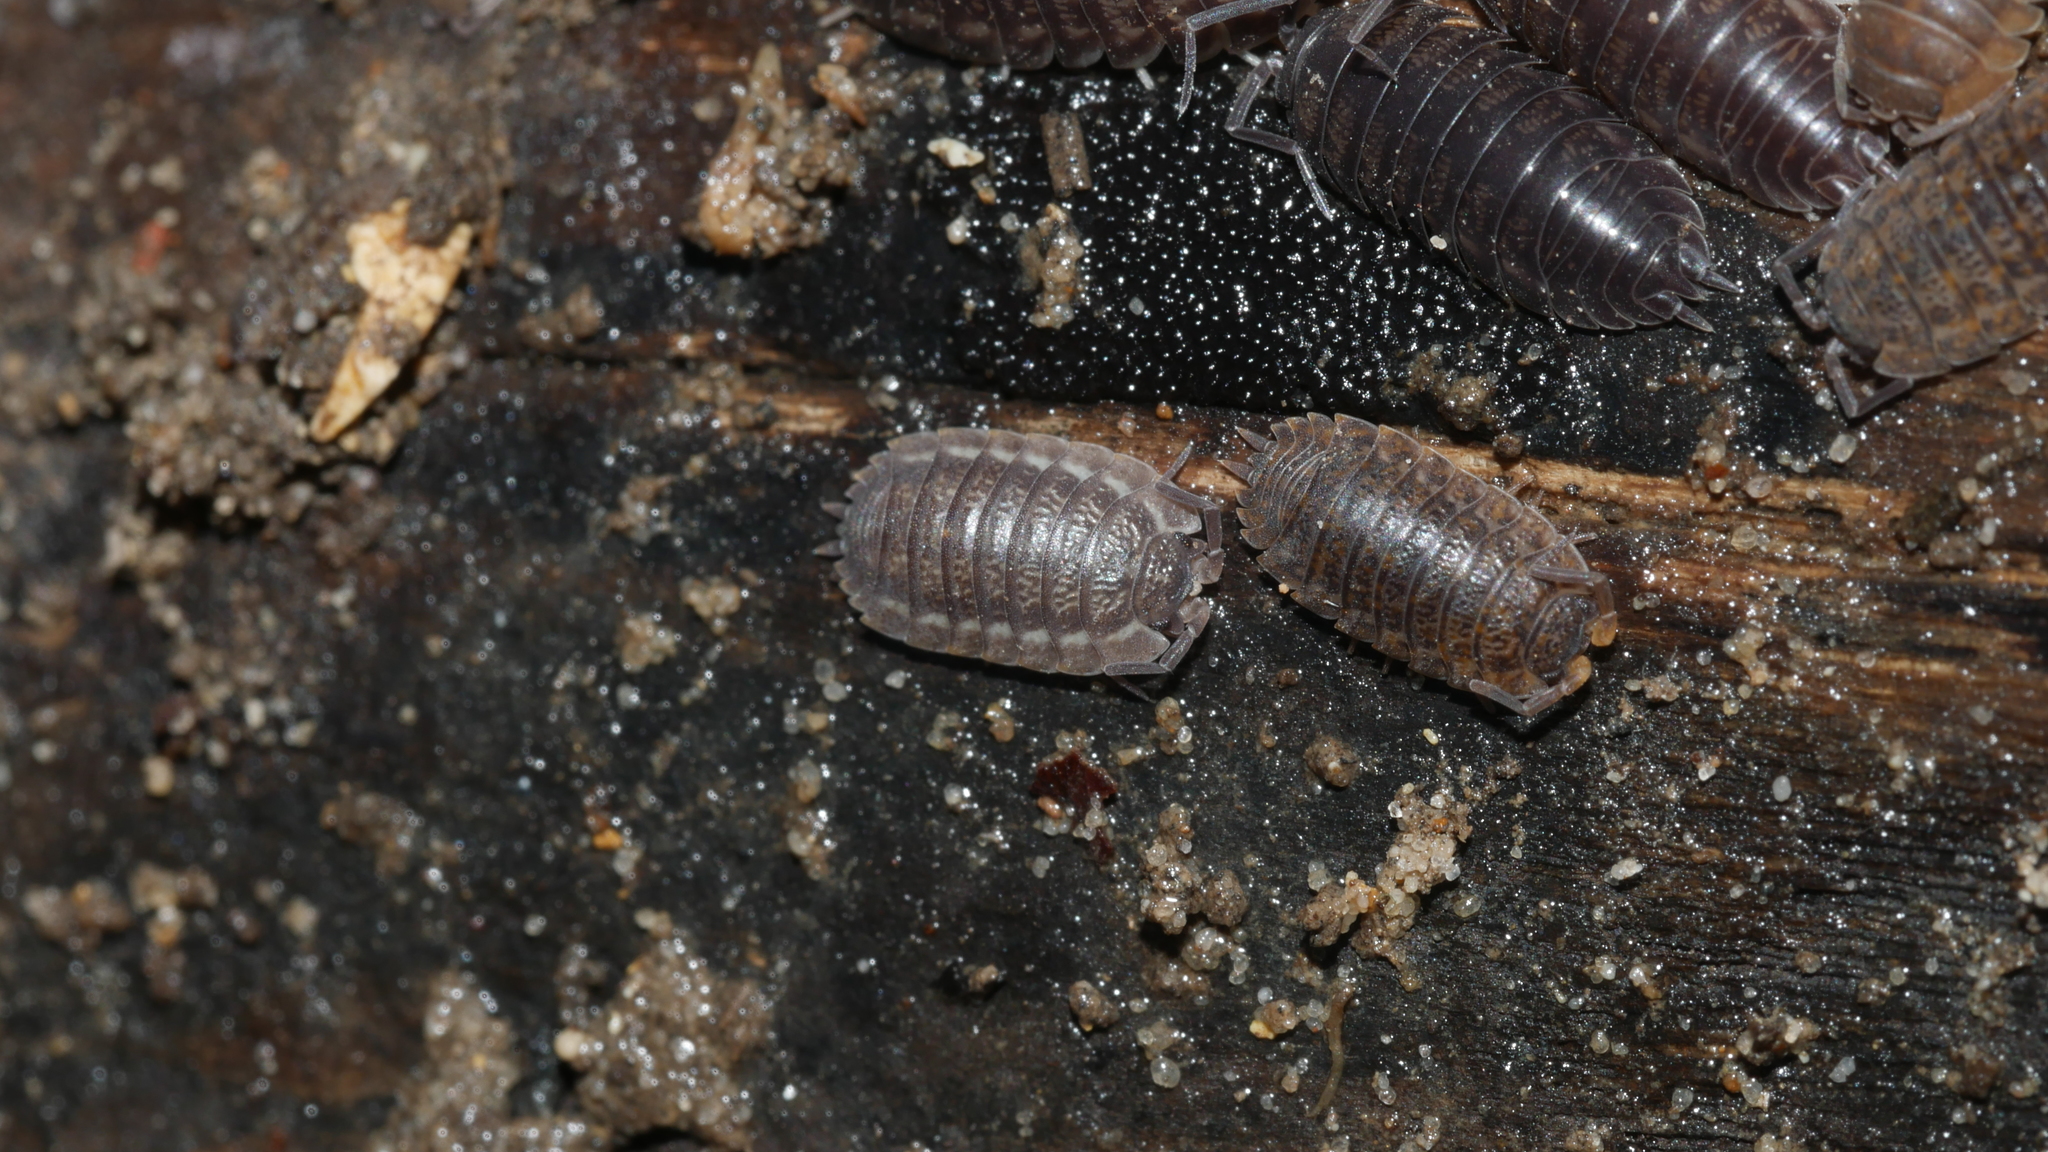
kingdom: Animalia
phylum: Arthropoda
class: Malacostraca
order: Isopoda
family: Trachelipodidae
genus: Trachelipus
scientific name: Trachelipus rathkii
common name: Isopod
